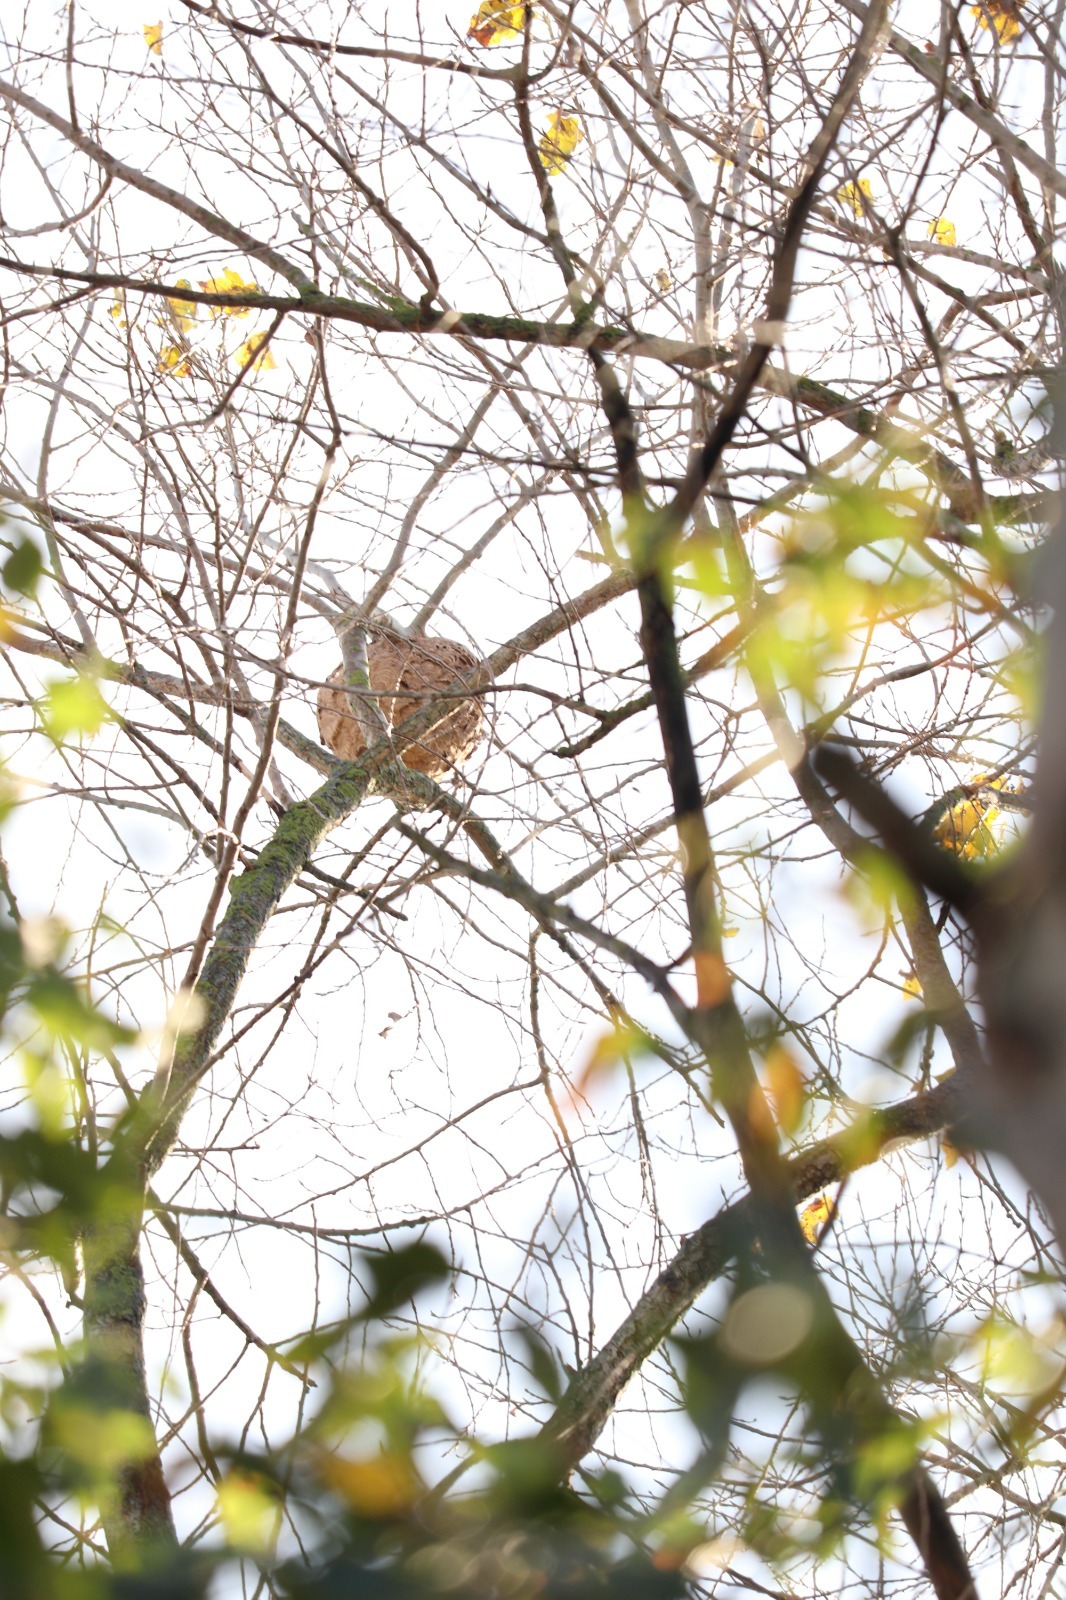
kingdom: Animalia
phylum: Arthropoda
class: Insecta
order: Hymenoptera
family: Vespidae
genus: Vespa
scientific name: Vespa velutina
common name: Asian hornet
